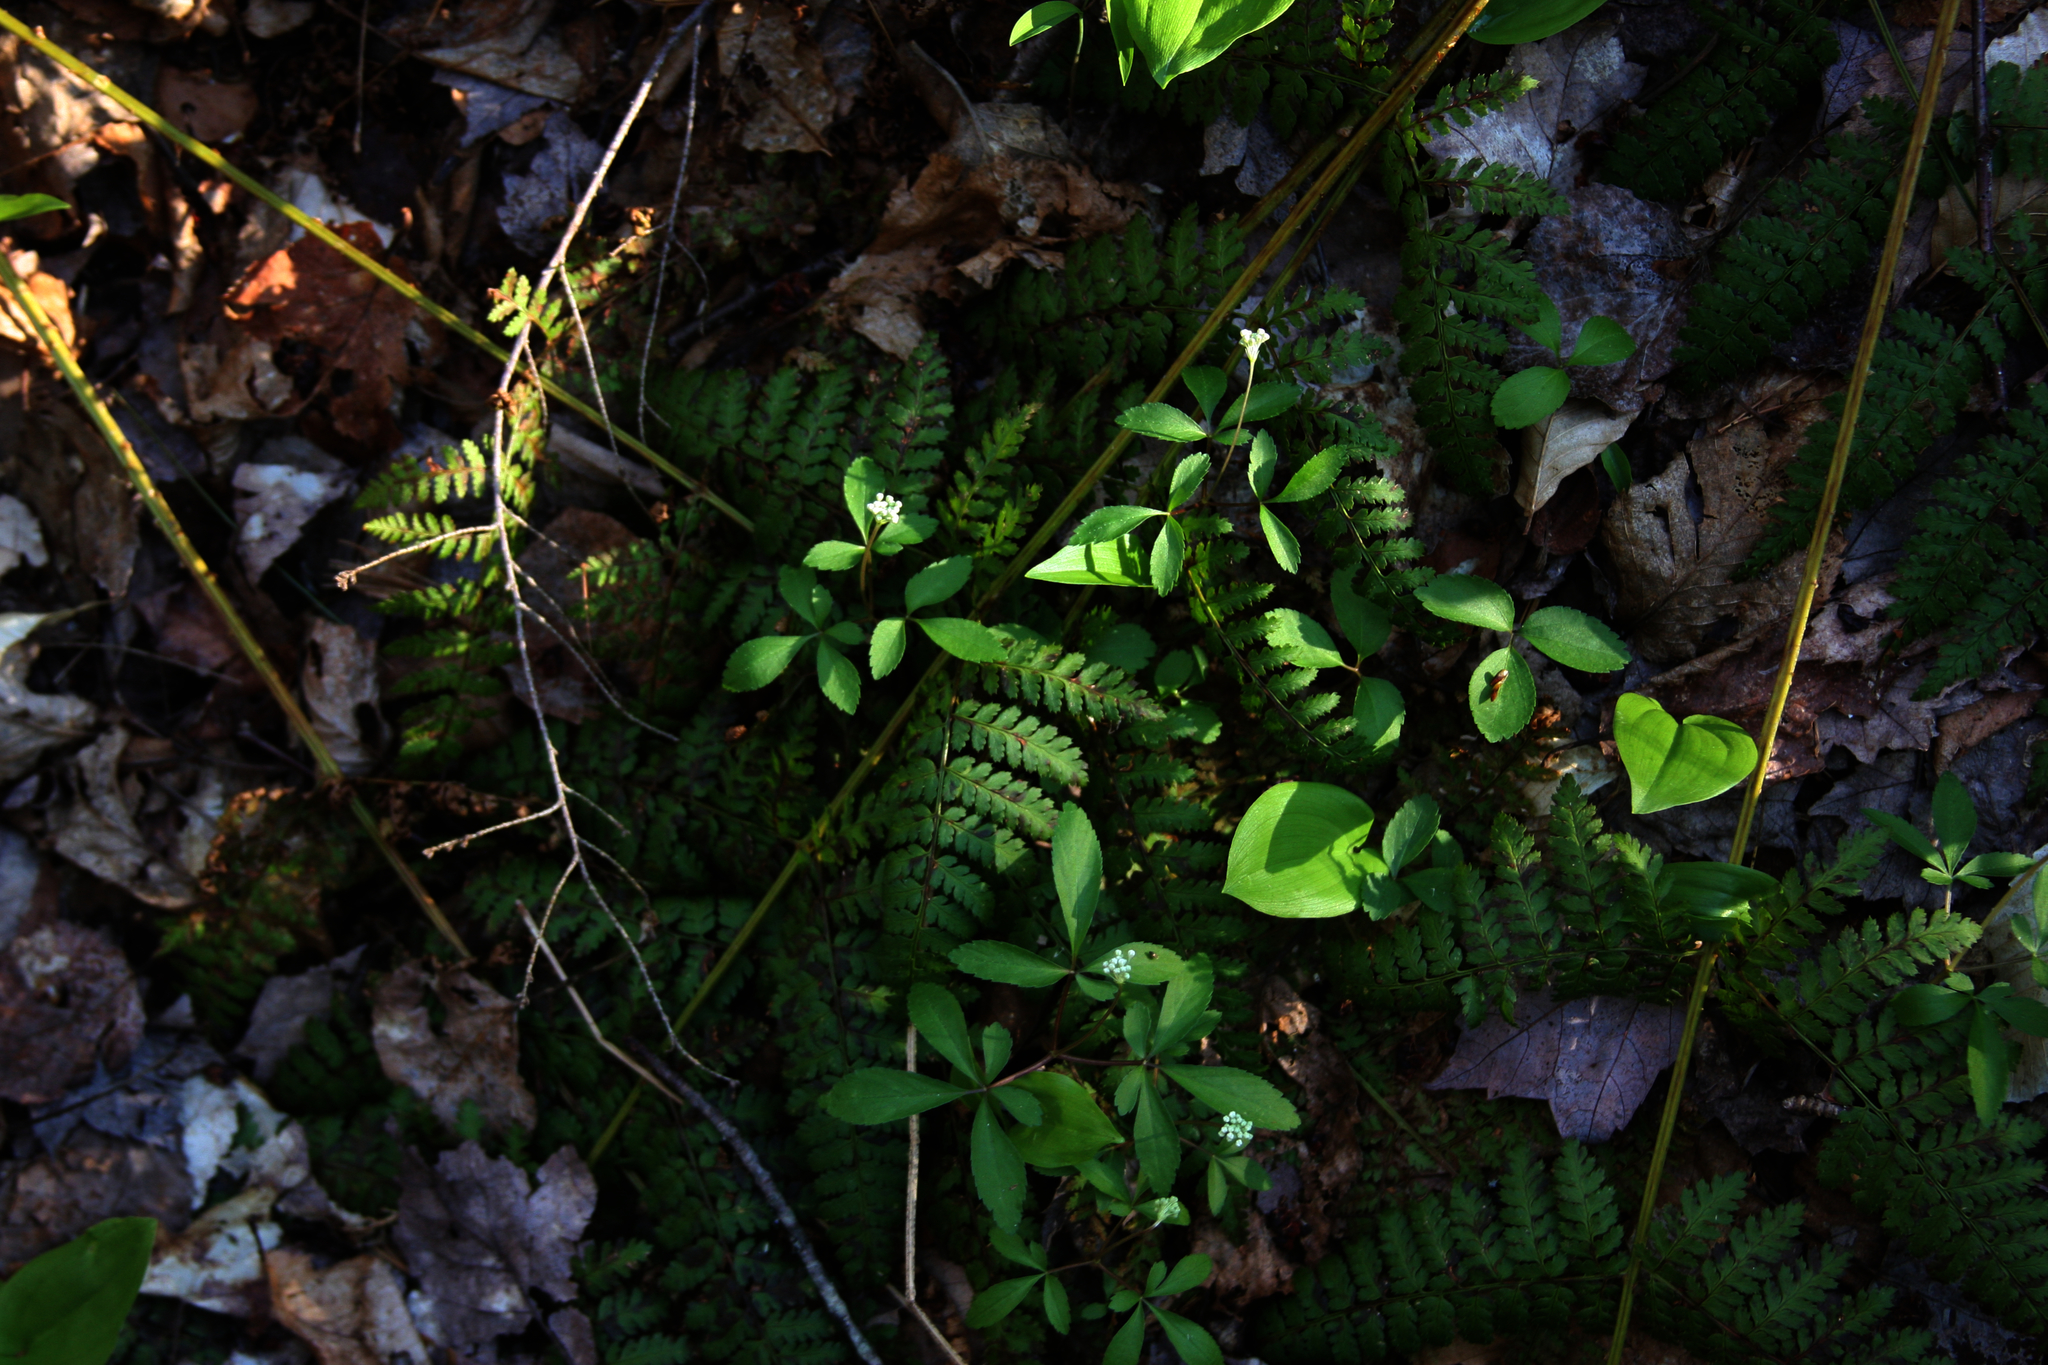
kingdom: Plantae
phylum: Tracheophyta
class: Magnoliopsida
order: Apiales
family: Araliaceae
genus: Panax
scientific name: Panax trifolius
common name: Dwarf ginseng
